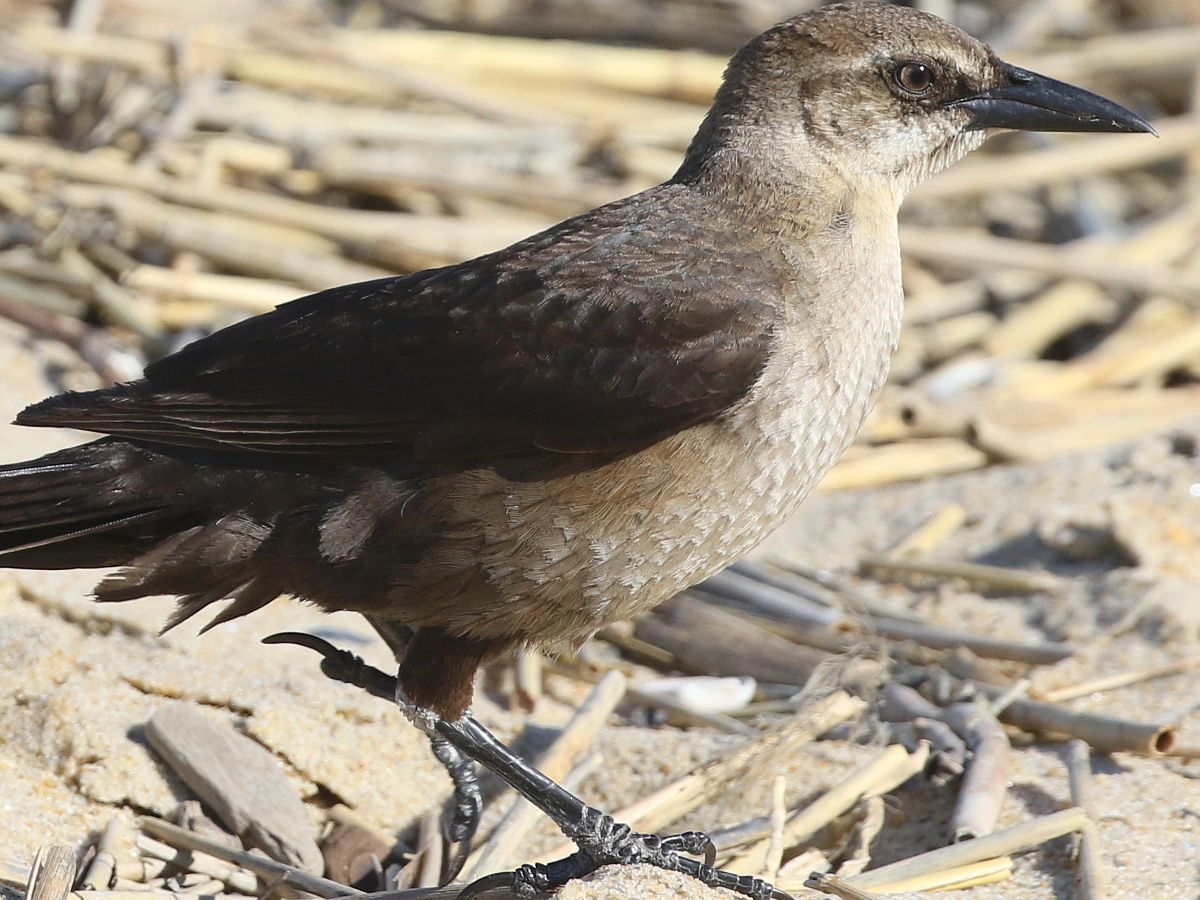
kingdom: Animalia
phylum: Chordata
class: Aves
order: Passeriformes
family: Icteridae
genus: Quiscalus
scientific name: Quiscalus major
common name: Boat-tailed grackle
